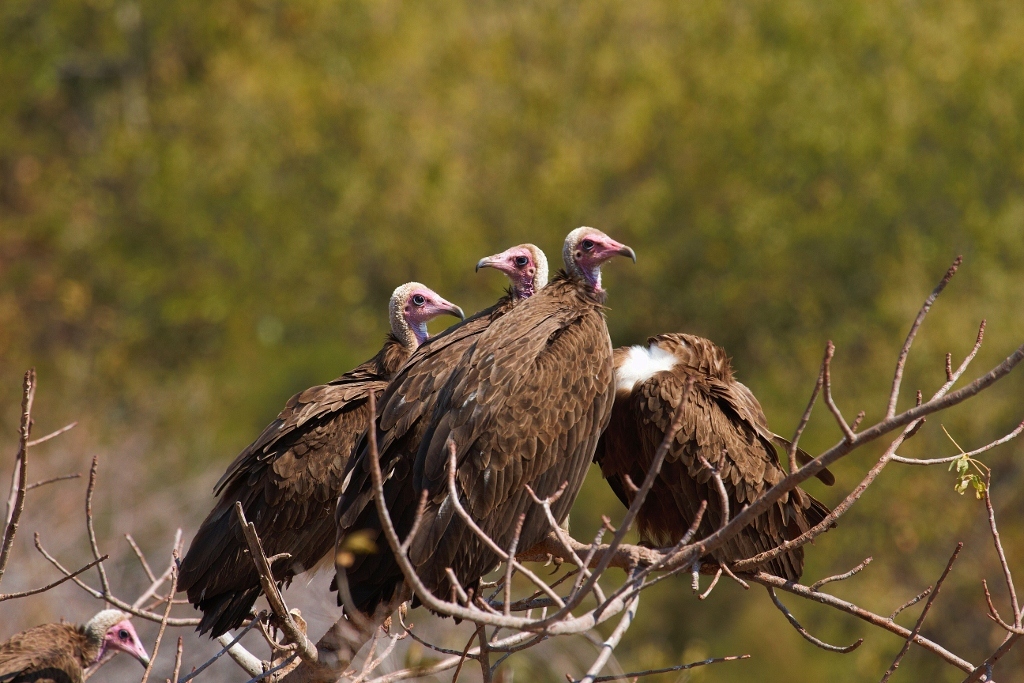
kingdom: Animalia
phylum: Chordata
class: Aves
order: Accipitriformes
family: Accipitridae
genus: Necrosyrtes
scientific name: Necrosyrtes monachus
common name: Hooded vulture
